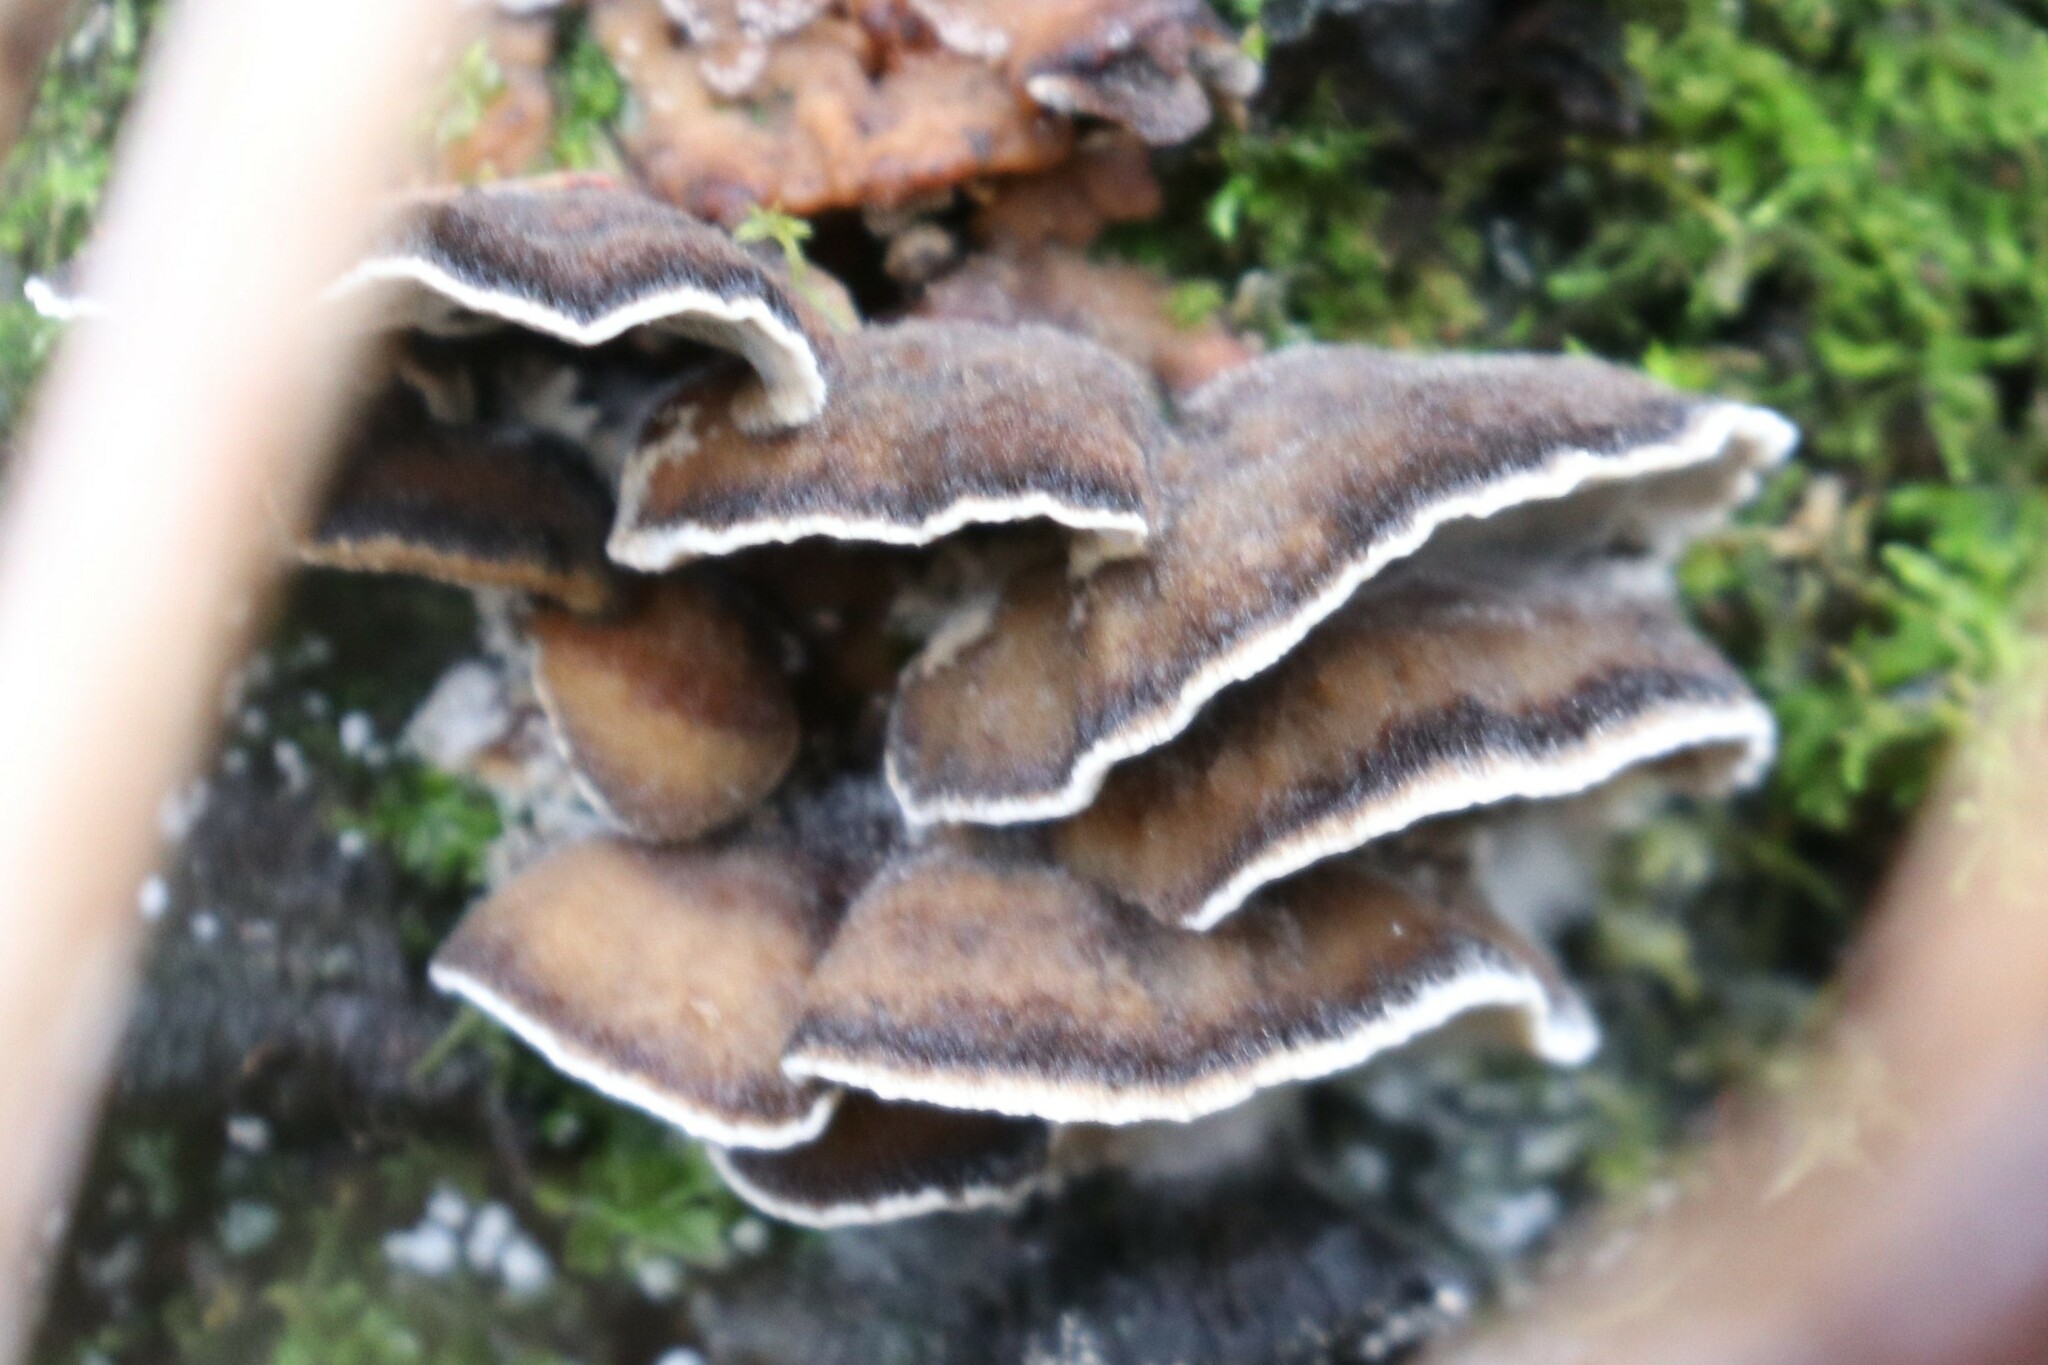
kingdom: Fungi
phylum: Basidiomycota
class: Agaricomycetes
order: Polyporales
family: Phanerochaetaceae
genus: Bjerkandera
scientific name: Bjerkandera adusta
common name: Smoky bracket
